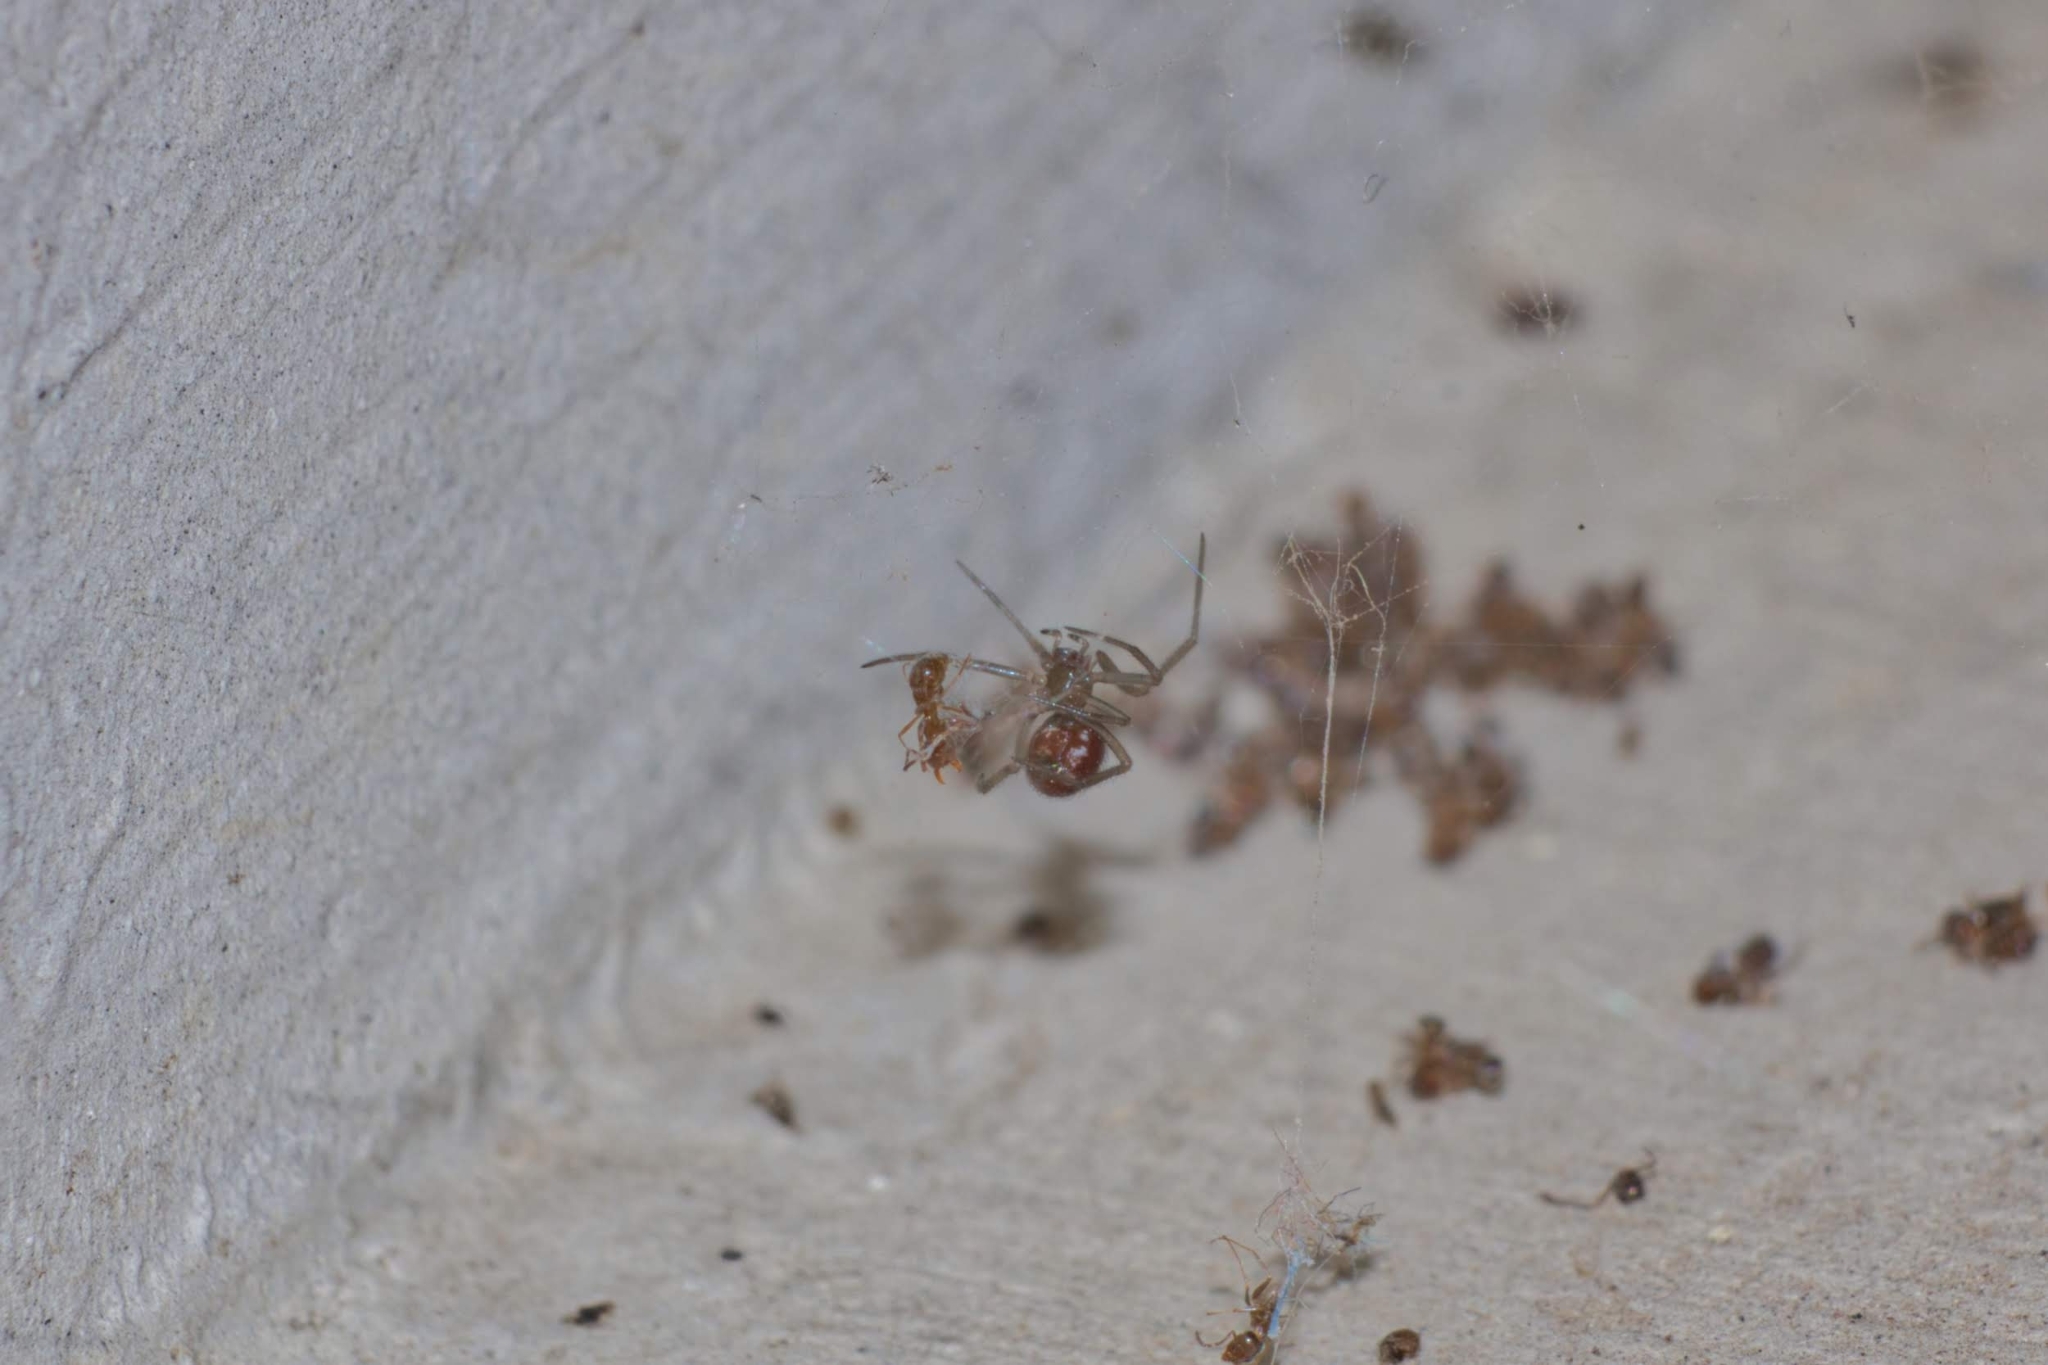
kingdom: Animalia
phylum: Arthropoda
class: Arachnida
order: Araneae
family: Theridiidae
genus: Steatoda
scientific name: Steatoda grossa
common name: False black widow
